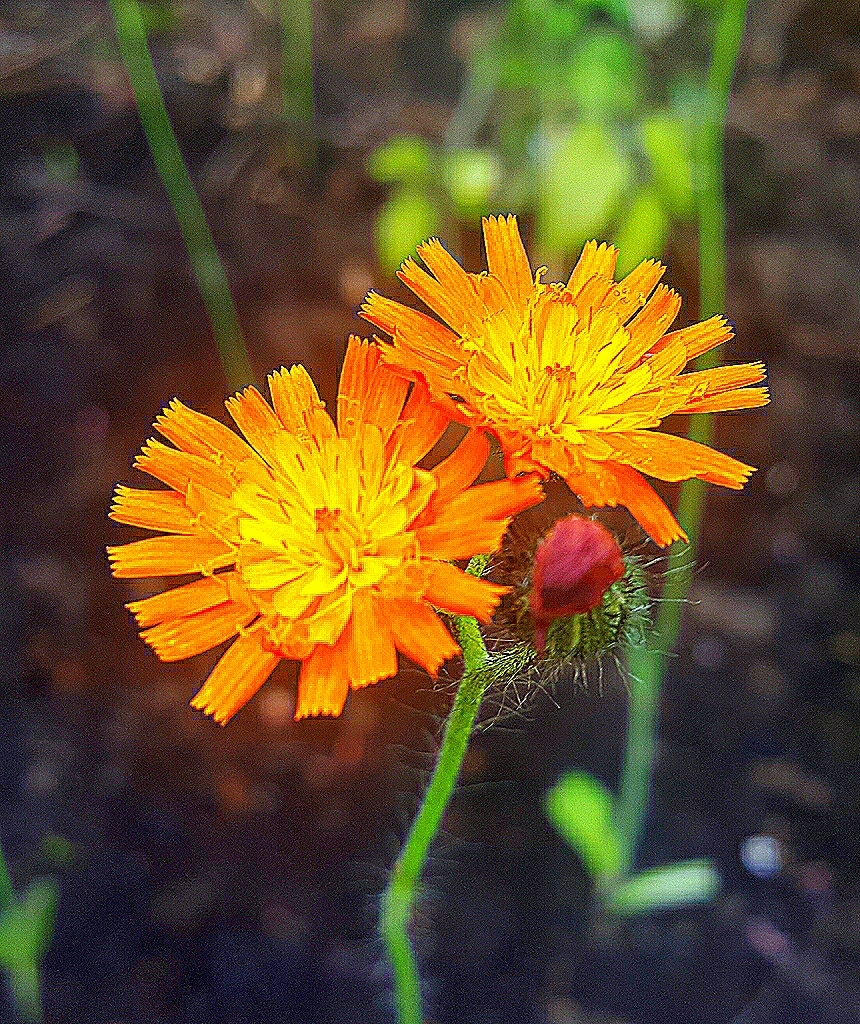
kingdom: Plantae
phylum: Tracheophyta
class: Magnoliopsida
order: Asterales
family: Asteraceae
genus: Pilosella
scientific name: Pilosella aurantiaca
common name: Fox-and-cubs
